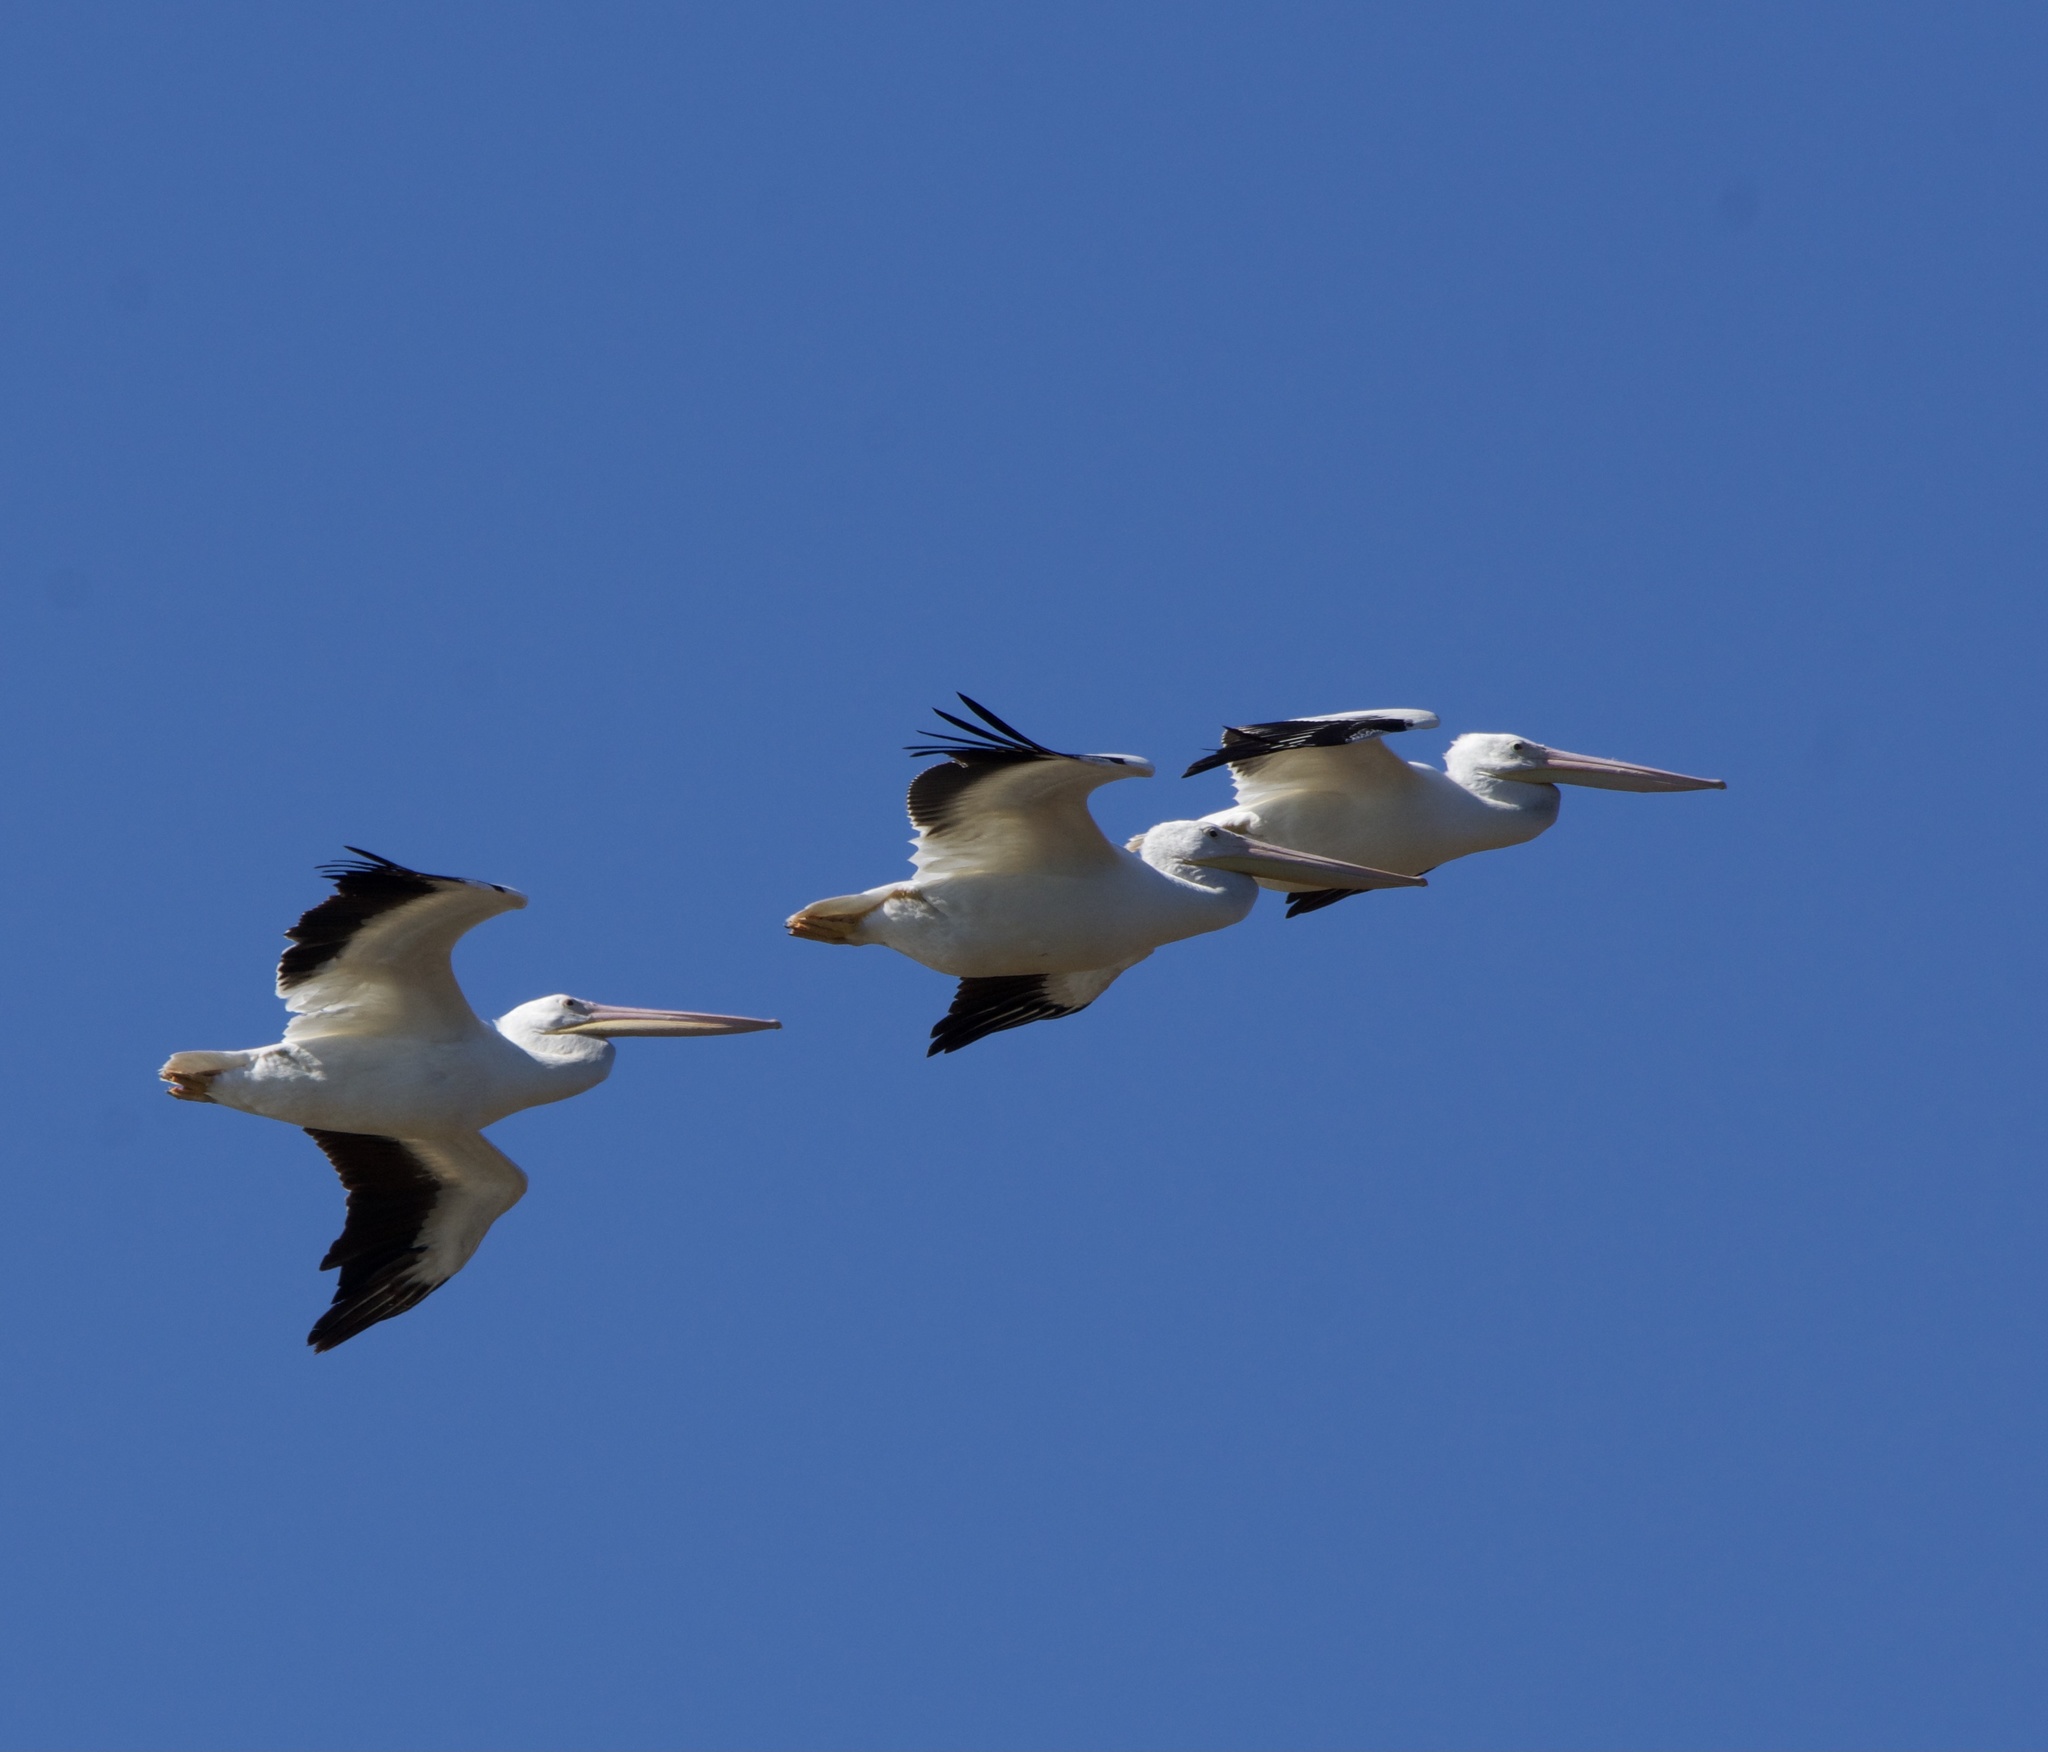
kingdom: Animalia
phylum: Chordata
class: Aves
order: Pelecaniformes
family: Pelecanidae
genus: Pelecanus
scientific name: Pelecanus erythrorhynchos
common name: American white pelican
